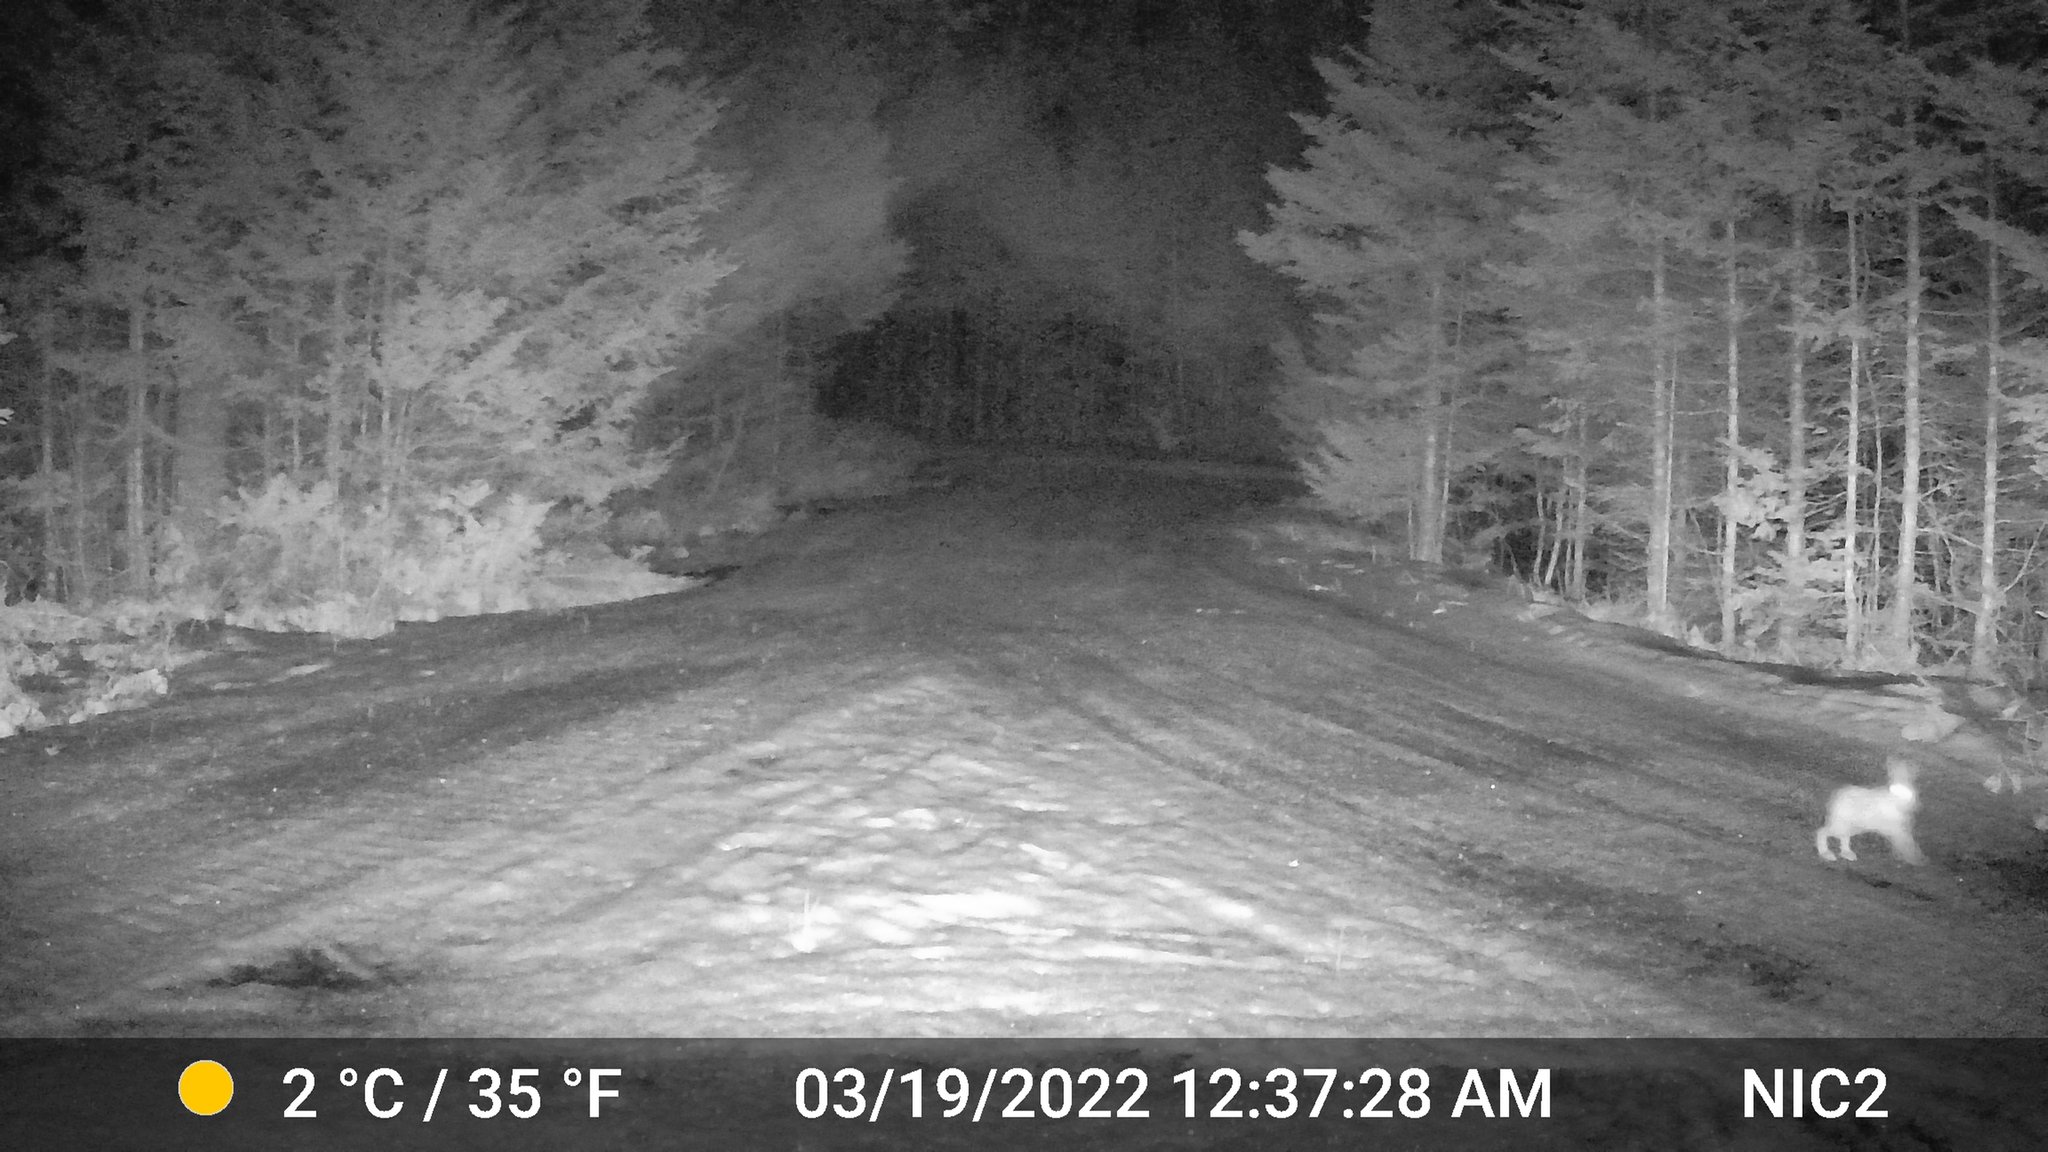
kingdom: Animalia
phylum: Chordata
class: Mammalia
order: Lagomorpha
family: Leporidae
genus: Lepus
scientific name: Lepus americanus
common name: Snowshoe hare
